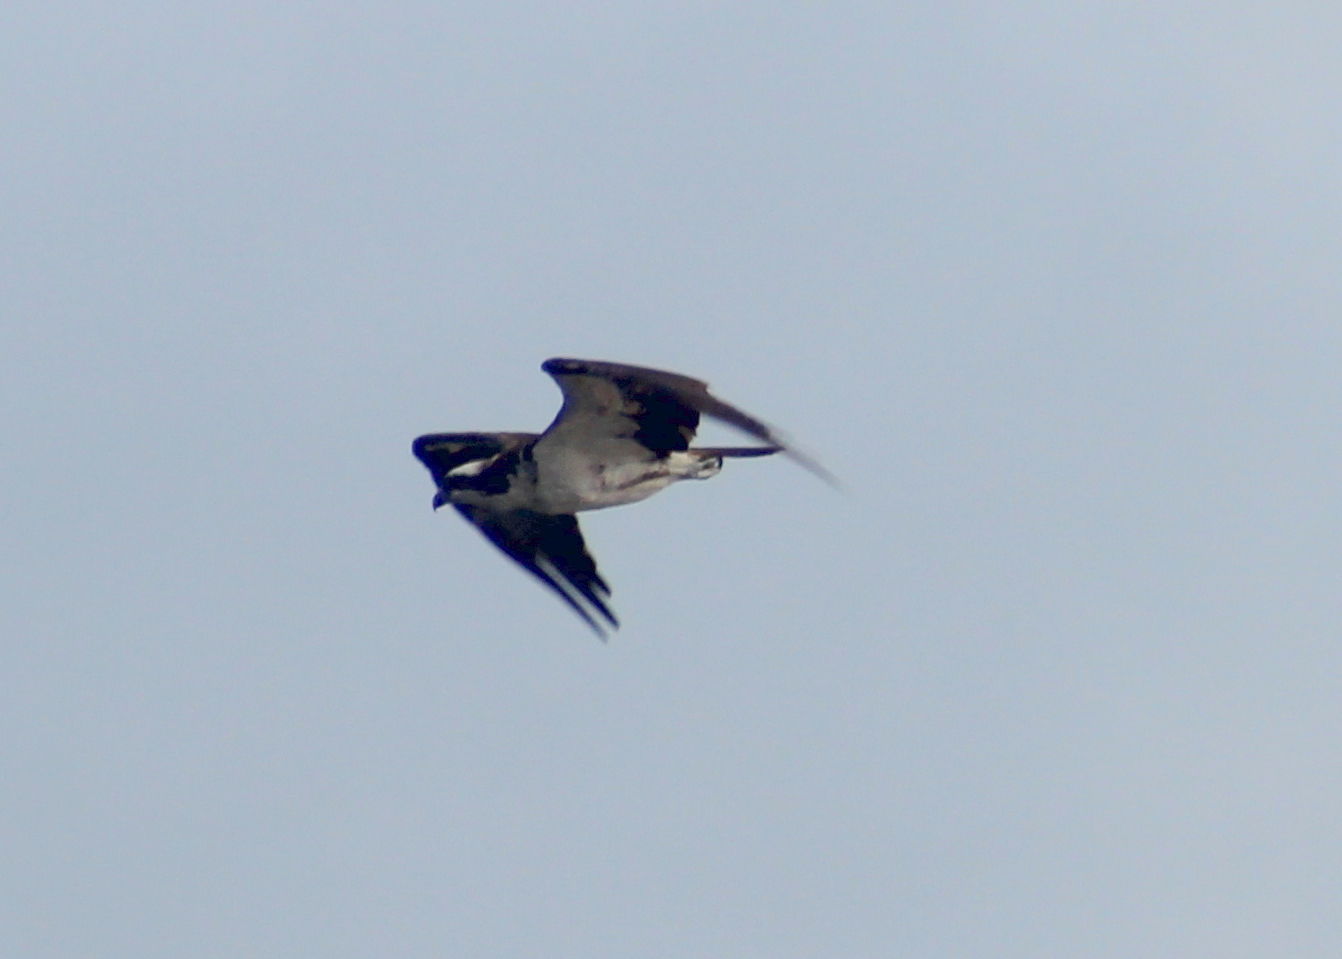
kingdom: Animalia
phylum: Chordata
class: Aves
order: Accipitriformes
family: Pandionidae
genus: Pandion
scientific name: Pandion haliaetus
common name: Osprey
